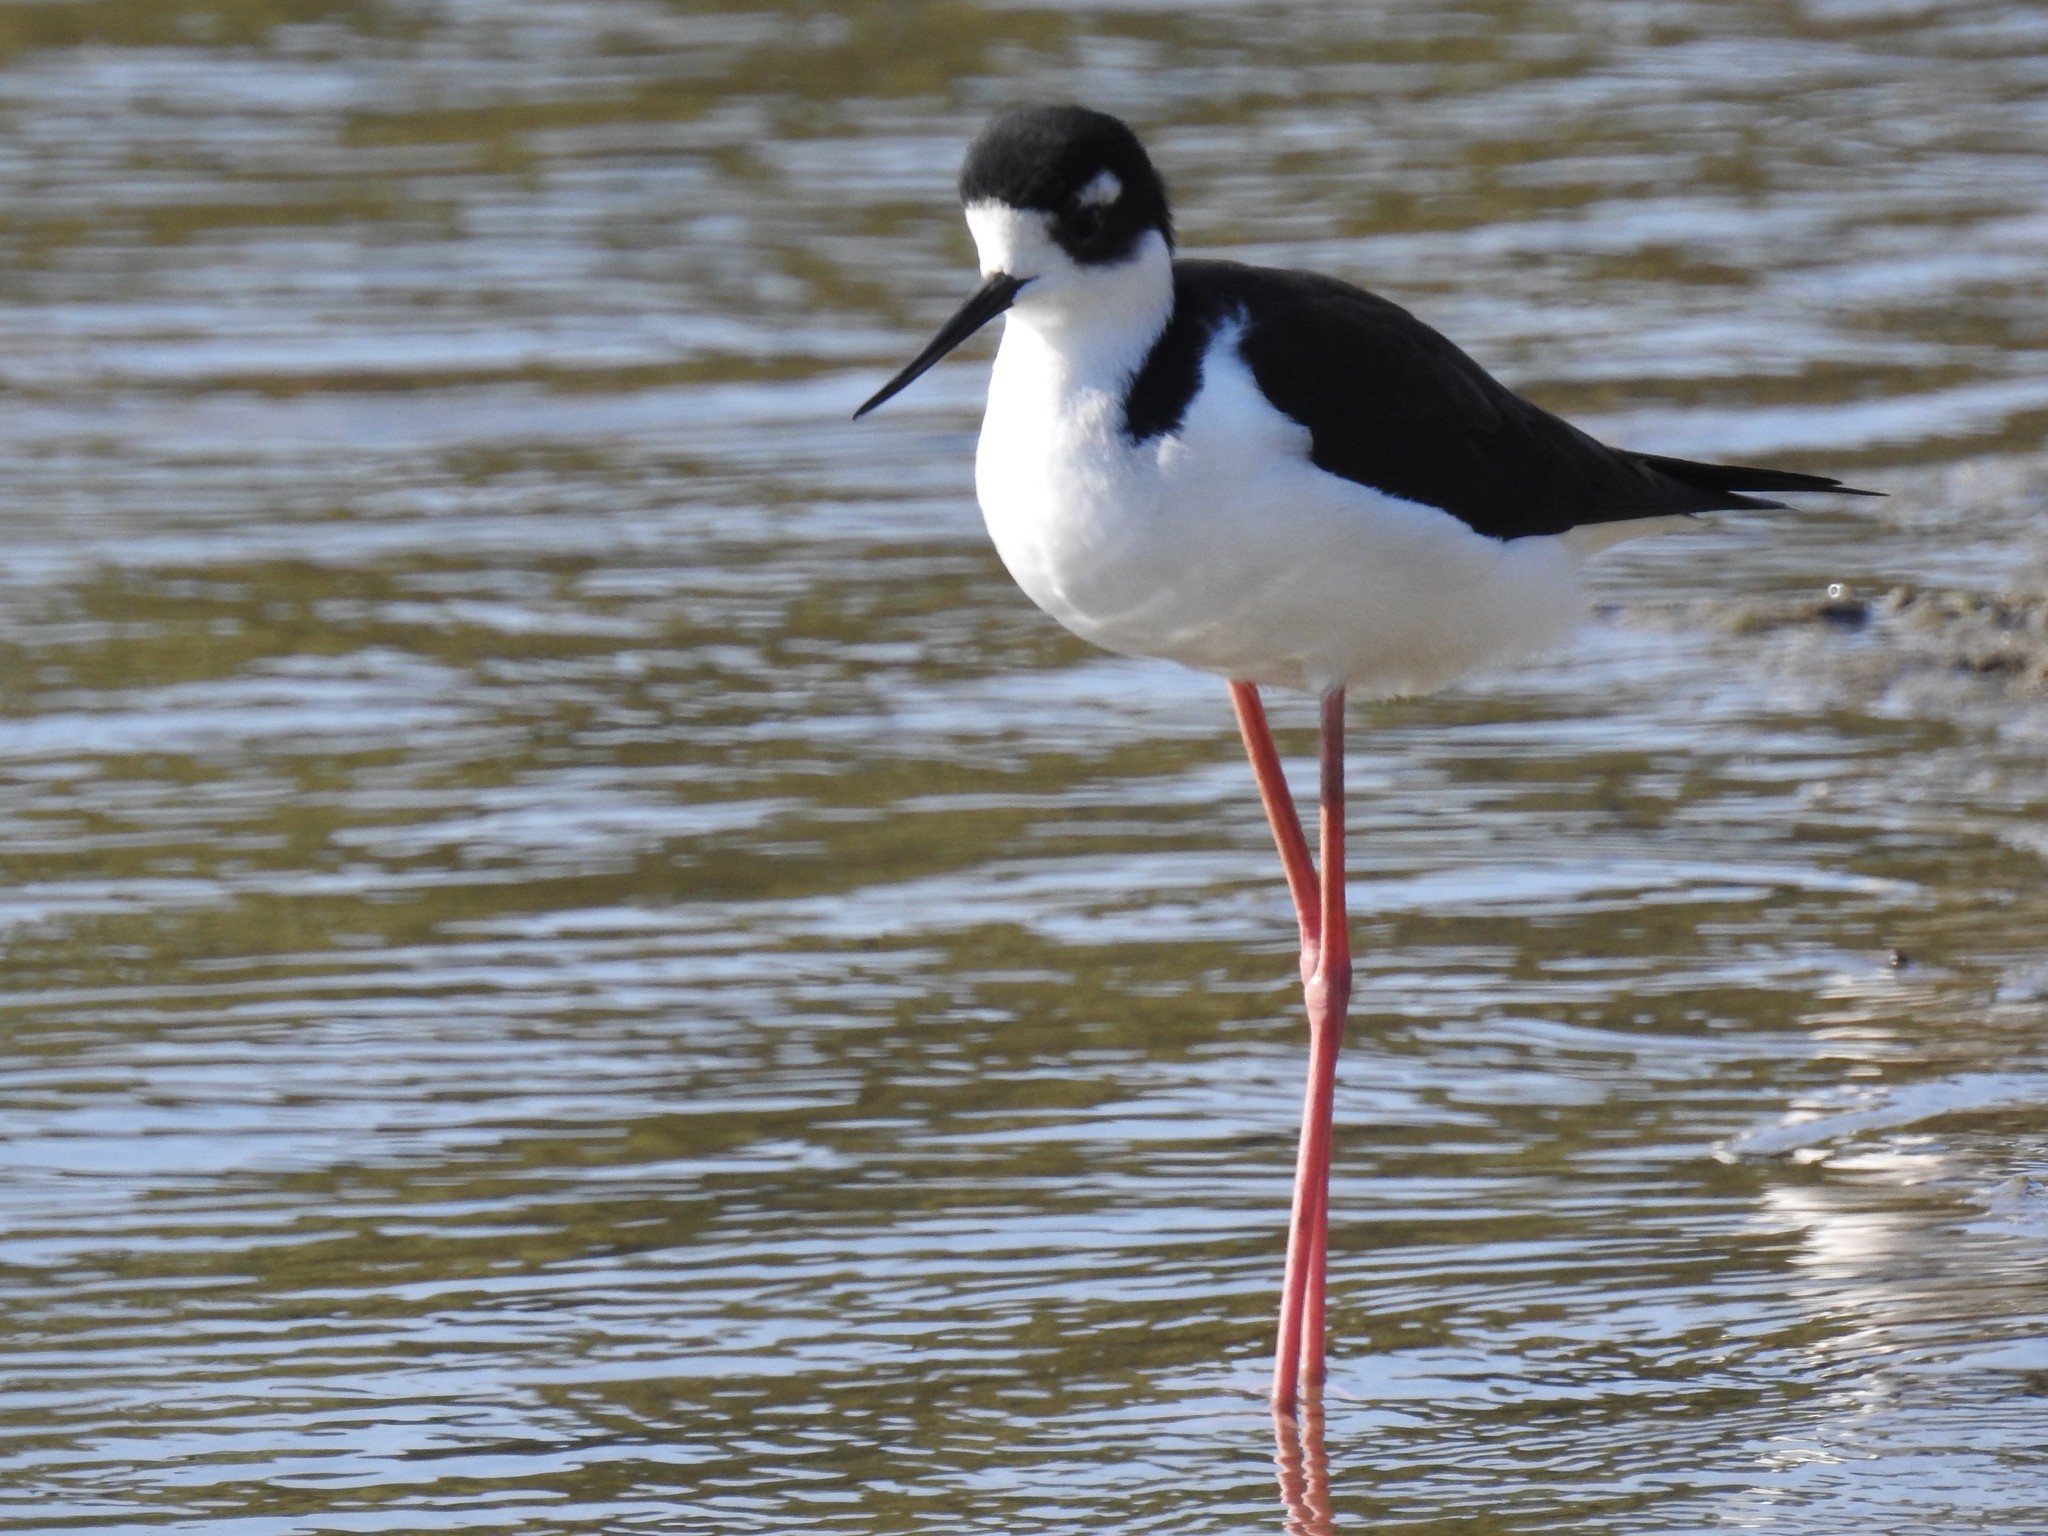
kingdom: Animalia
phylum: Chordata
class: Aves
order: Charadriiformes
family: Recurvirostridae
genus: Himantopus
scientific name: Himantopus mexicanus
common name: Black-necked stilt
